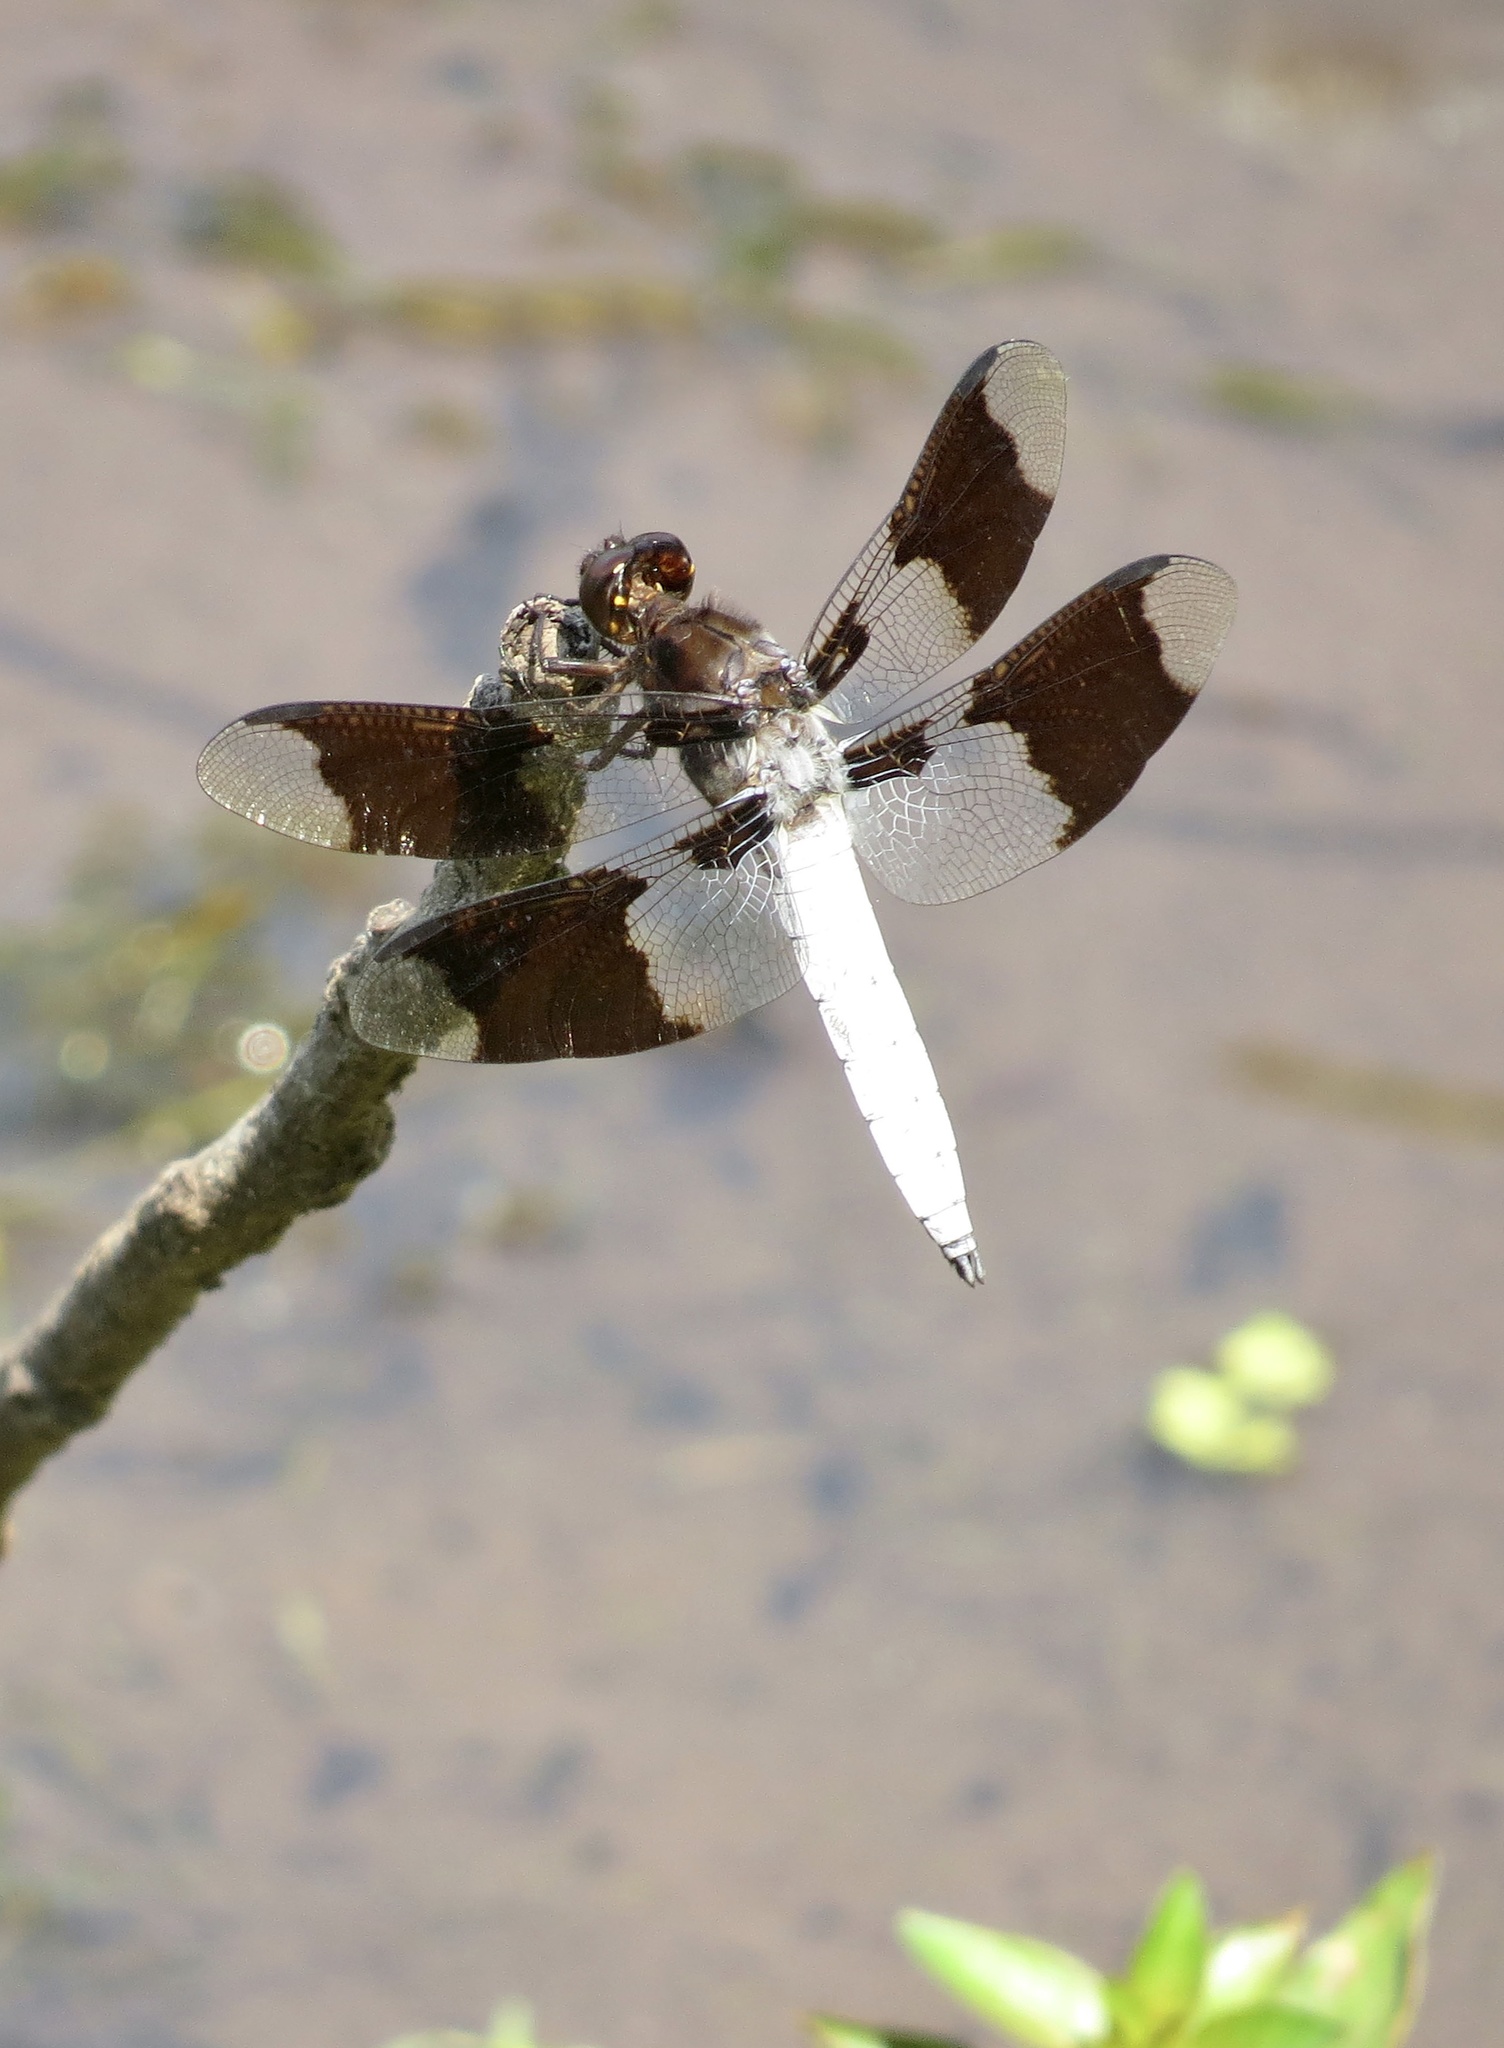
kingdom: Animalia
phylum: Arthropoda
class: Insecta
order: Odonata
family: Libellulidae
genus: Plathemis
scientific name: Plathemis lydia
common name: Common whitetail
